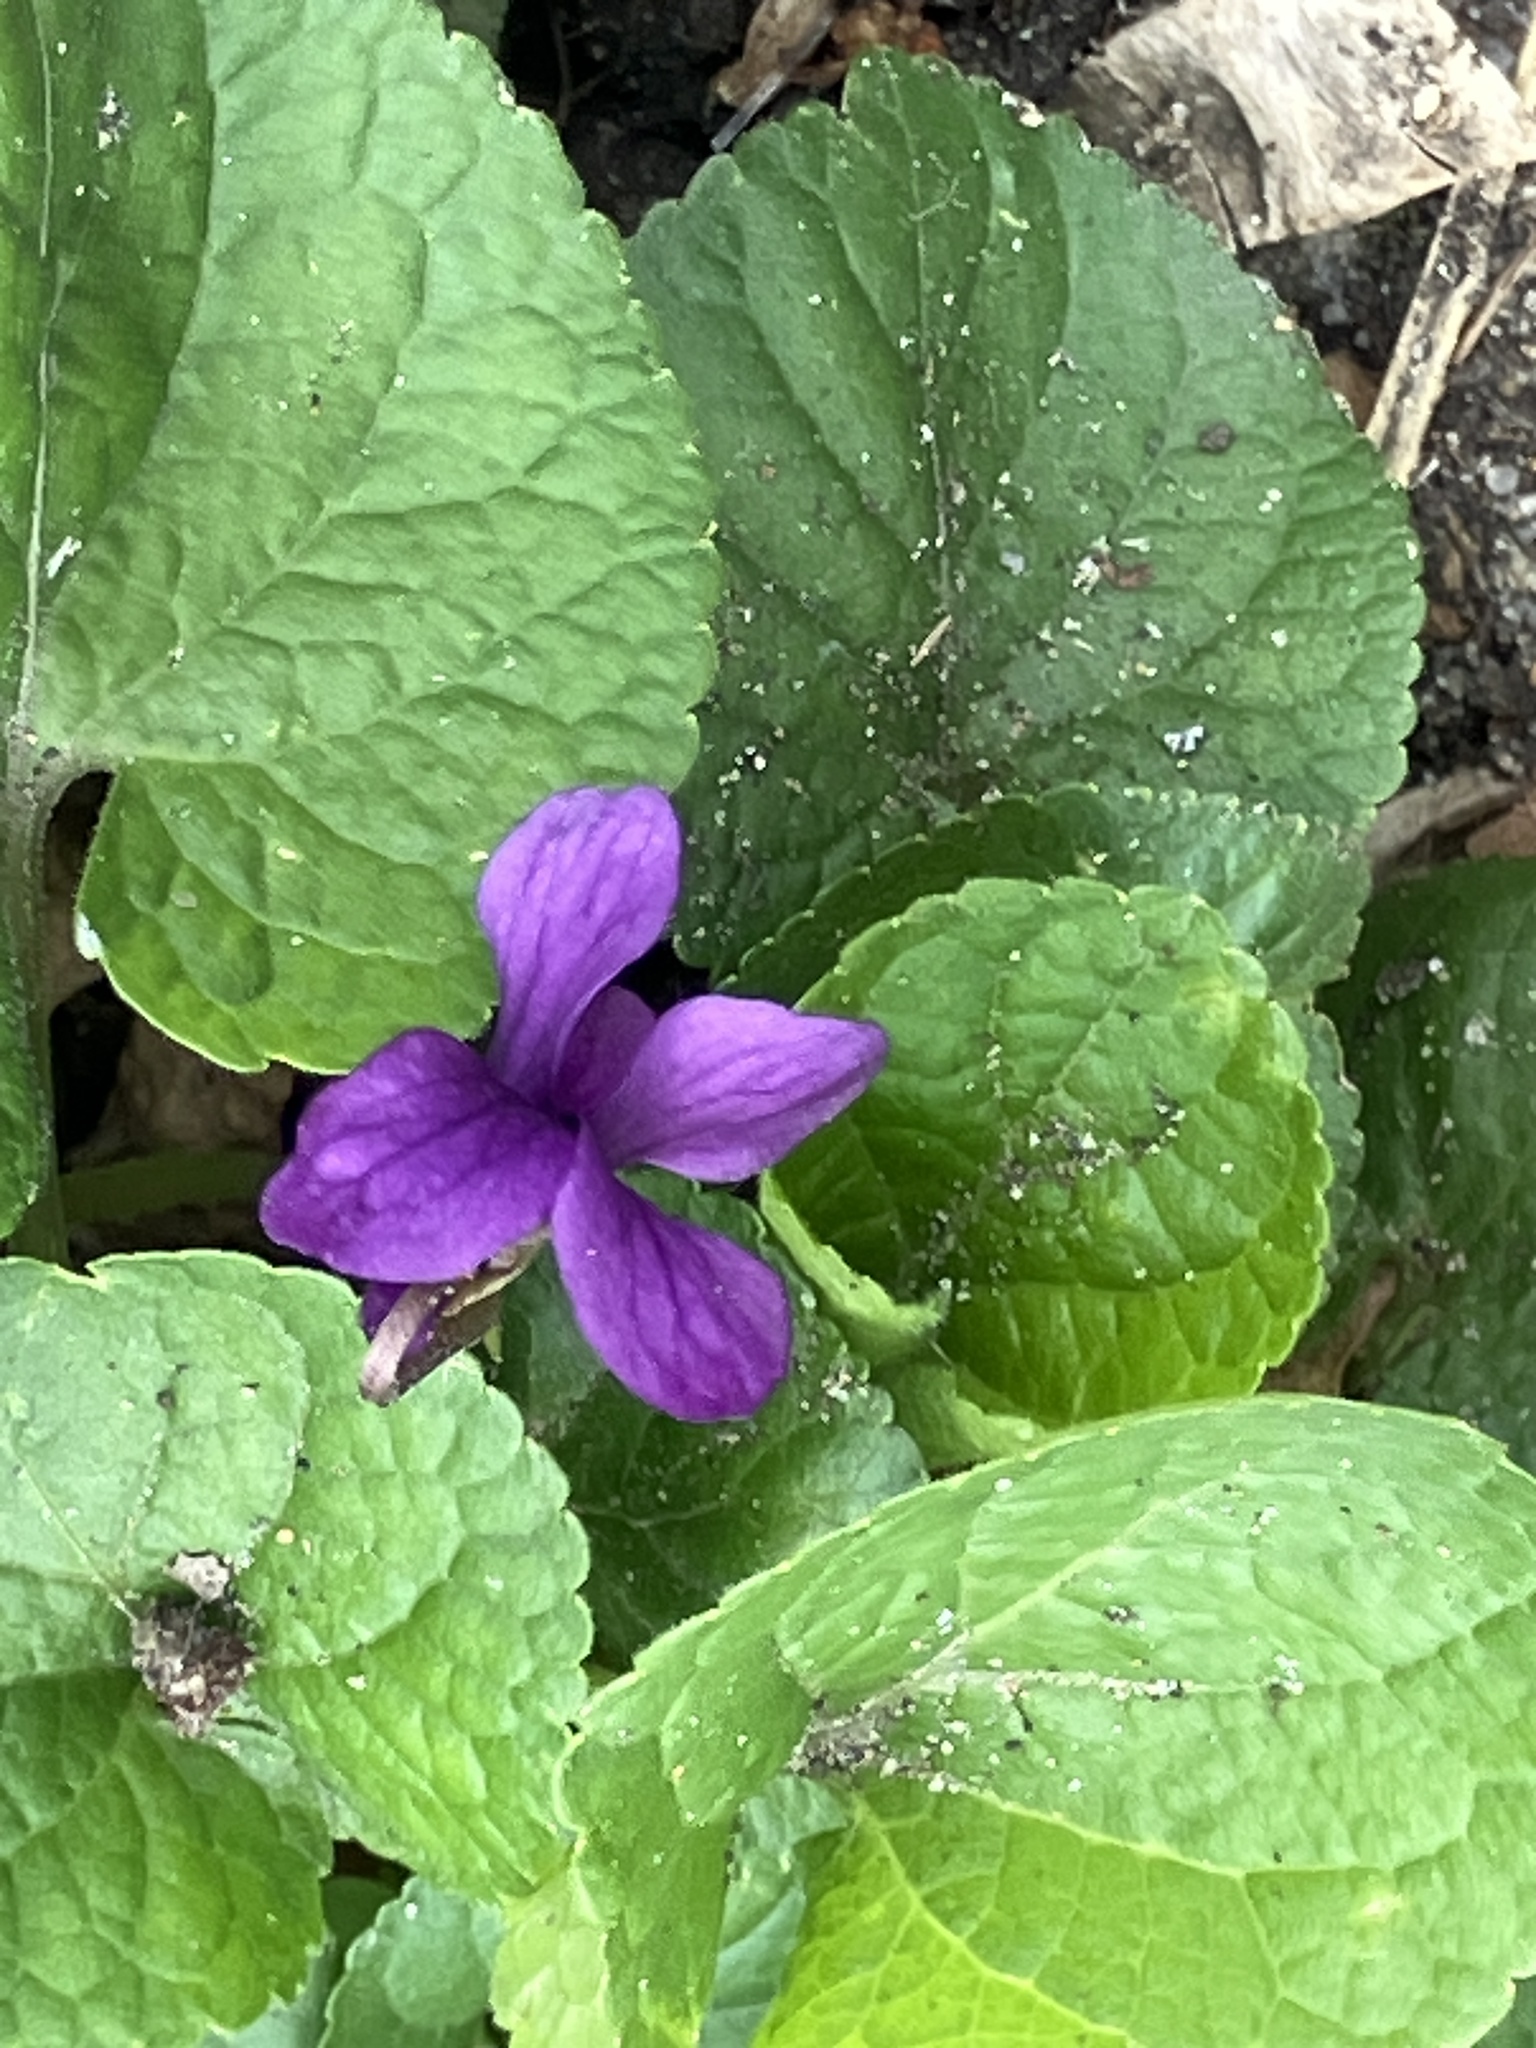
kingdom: Plantae
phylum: Tracheophyta
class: Magnoliopsida
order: Malpighiales
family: Violaceae
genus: Viola
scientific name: Viola odorata
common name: Sweet violet
